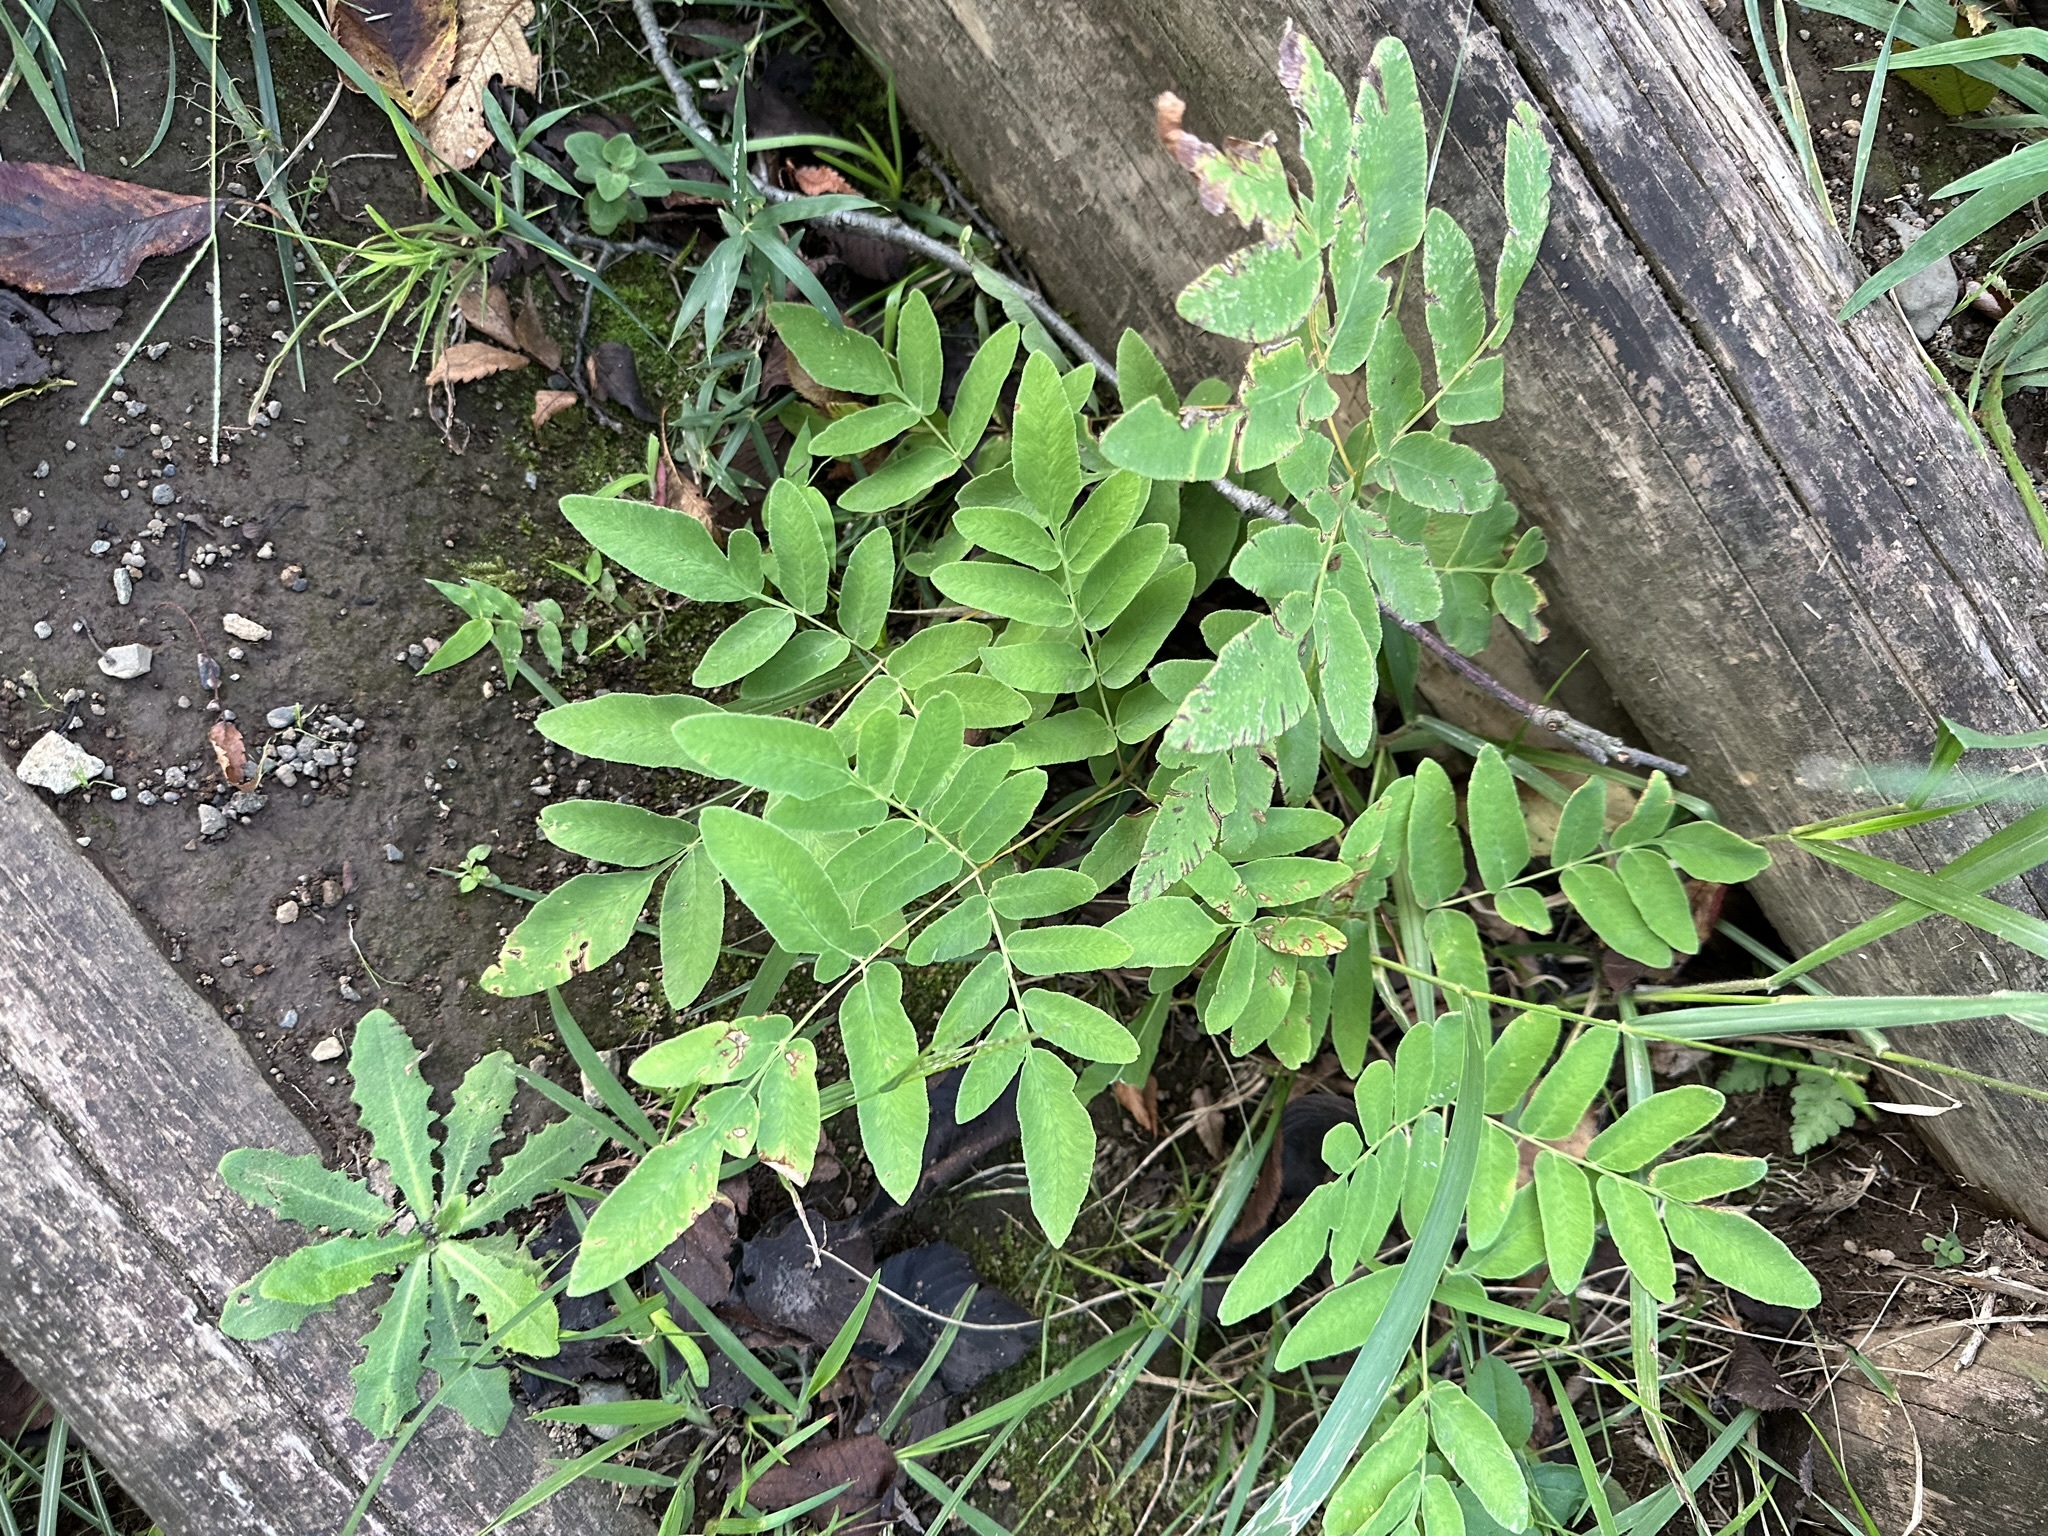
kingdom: Plantae
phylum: Tracheophyta
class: Polypodiopsida
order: Osmundales
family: Osmundaceae
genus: Osmunda
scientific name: Osmunda japonica
